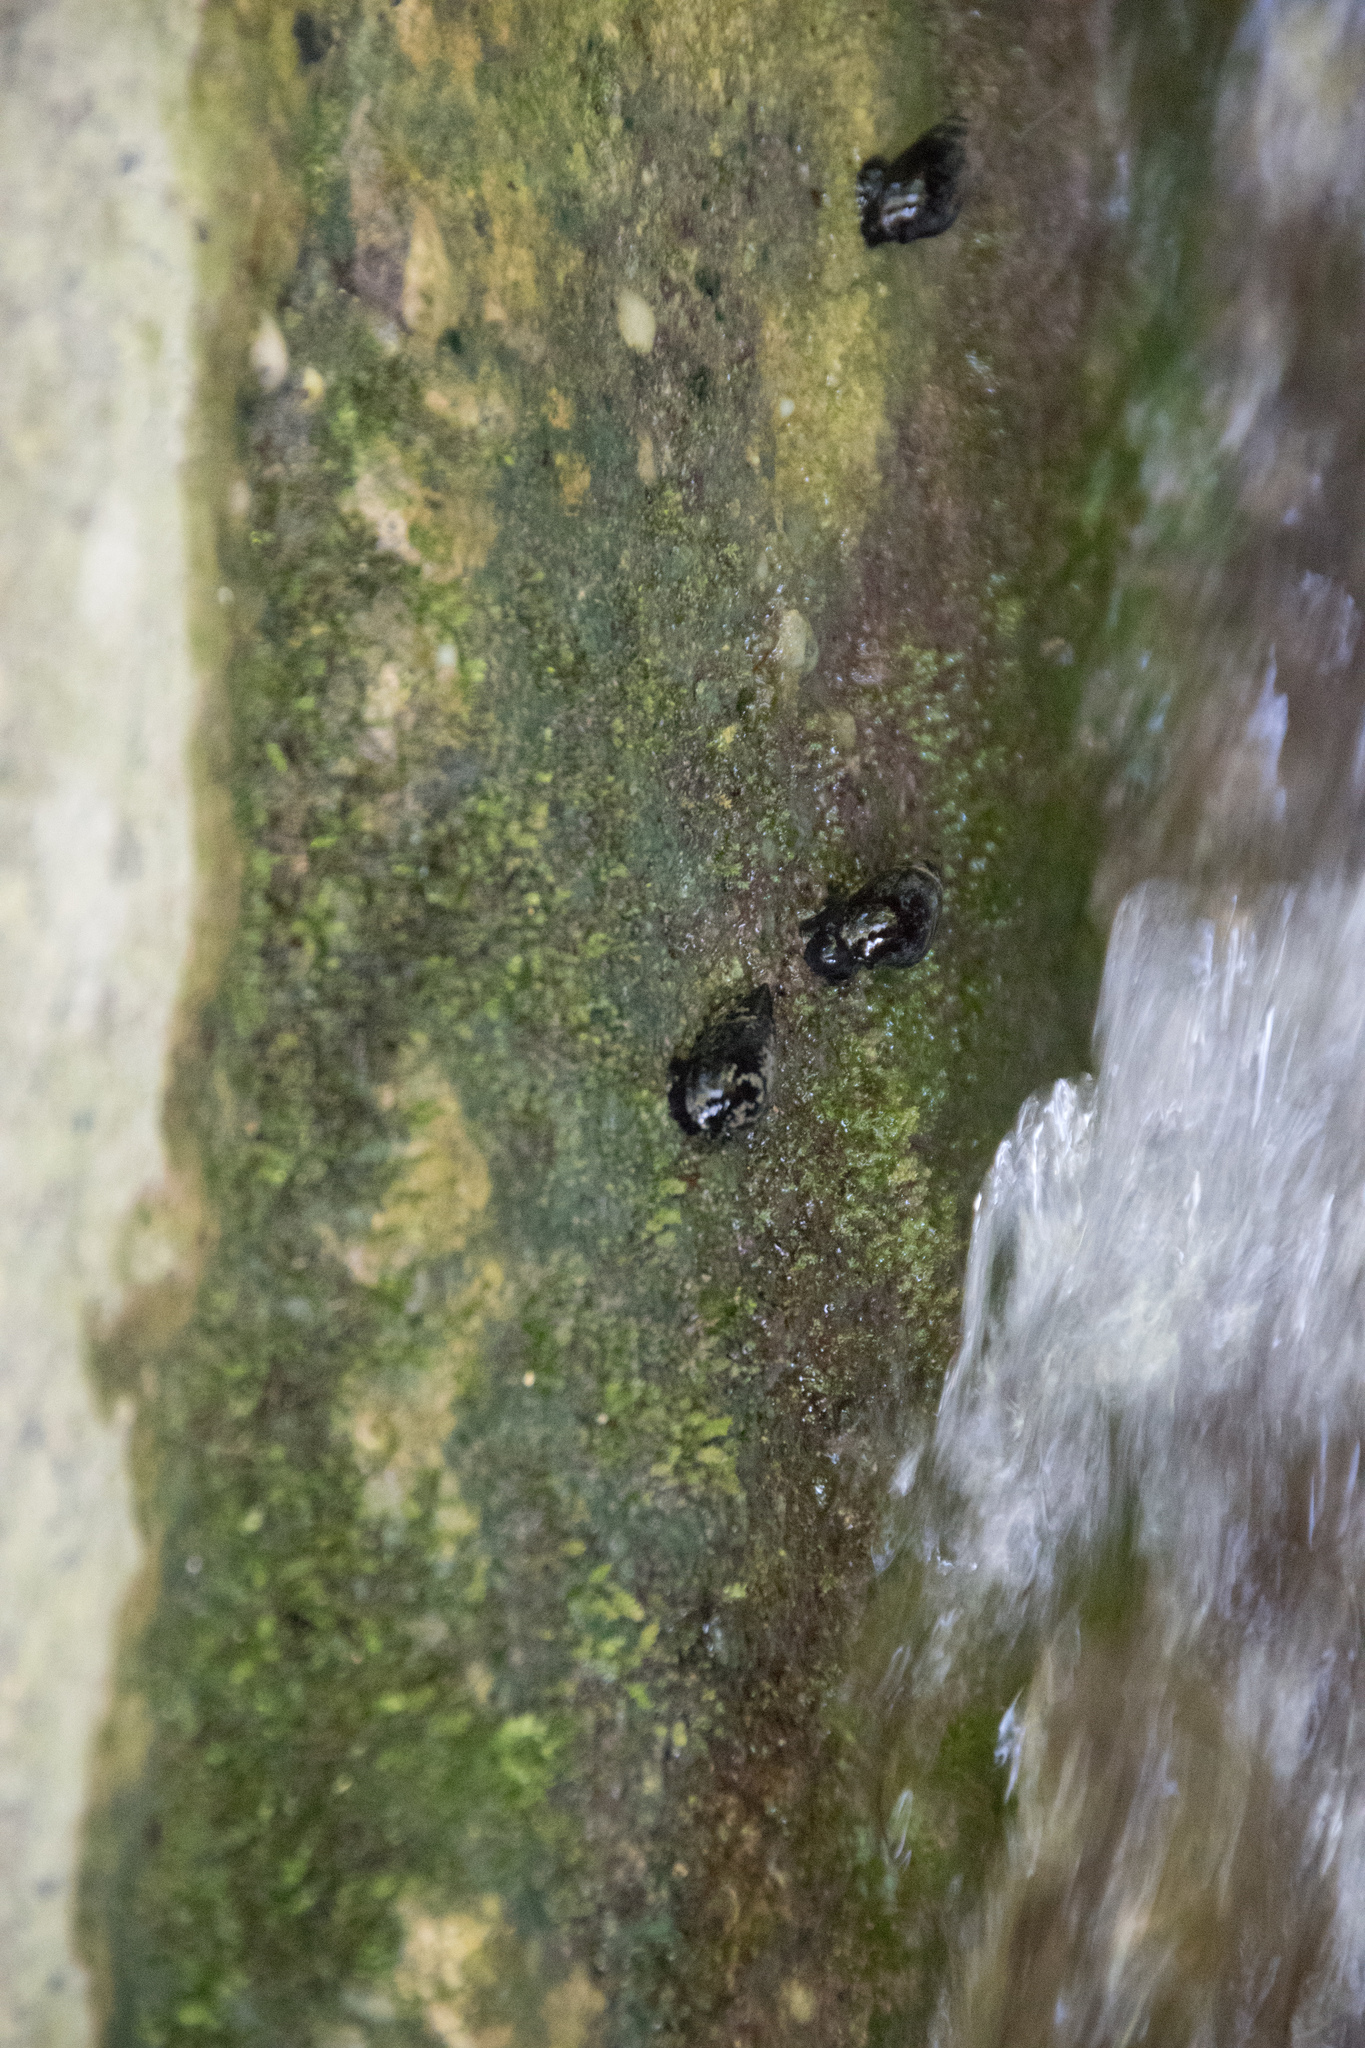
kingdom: Animalia
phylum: Mollusca
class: Gastropoda
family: Melanopsidae
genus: Melanopsis
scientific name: Melanopsis
